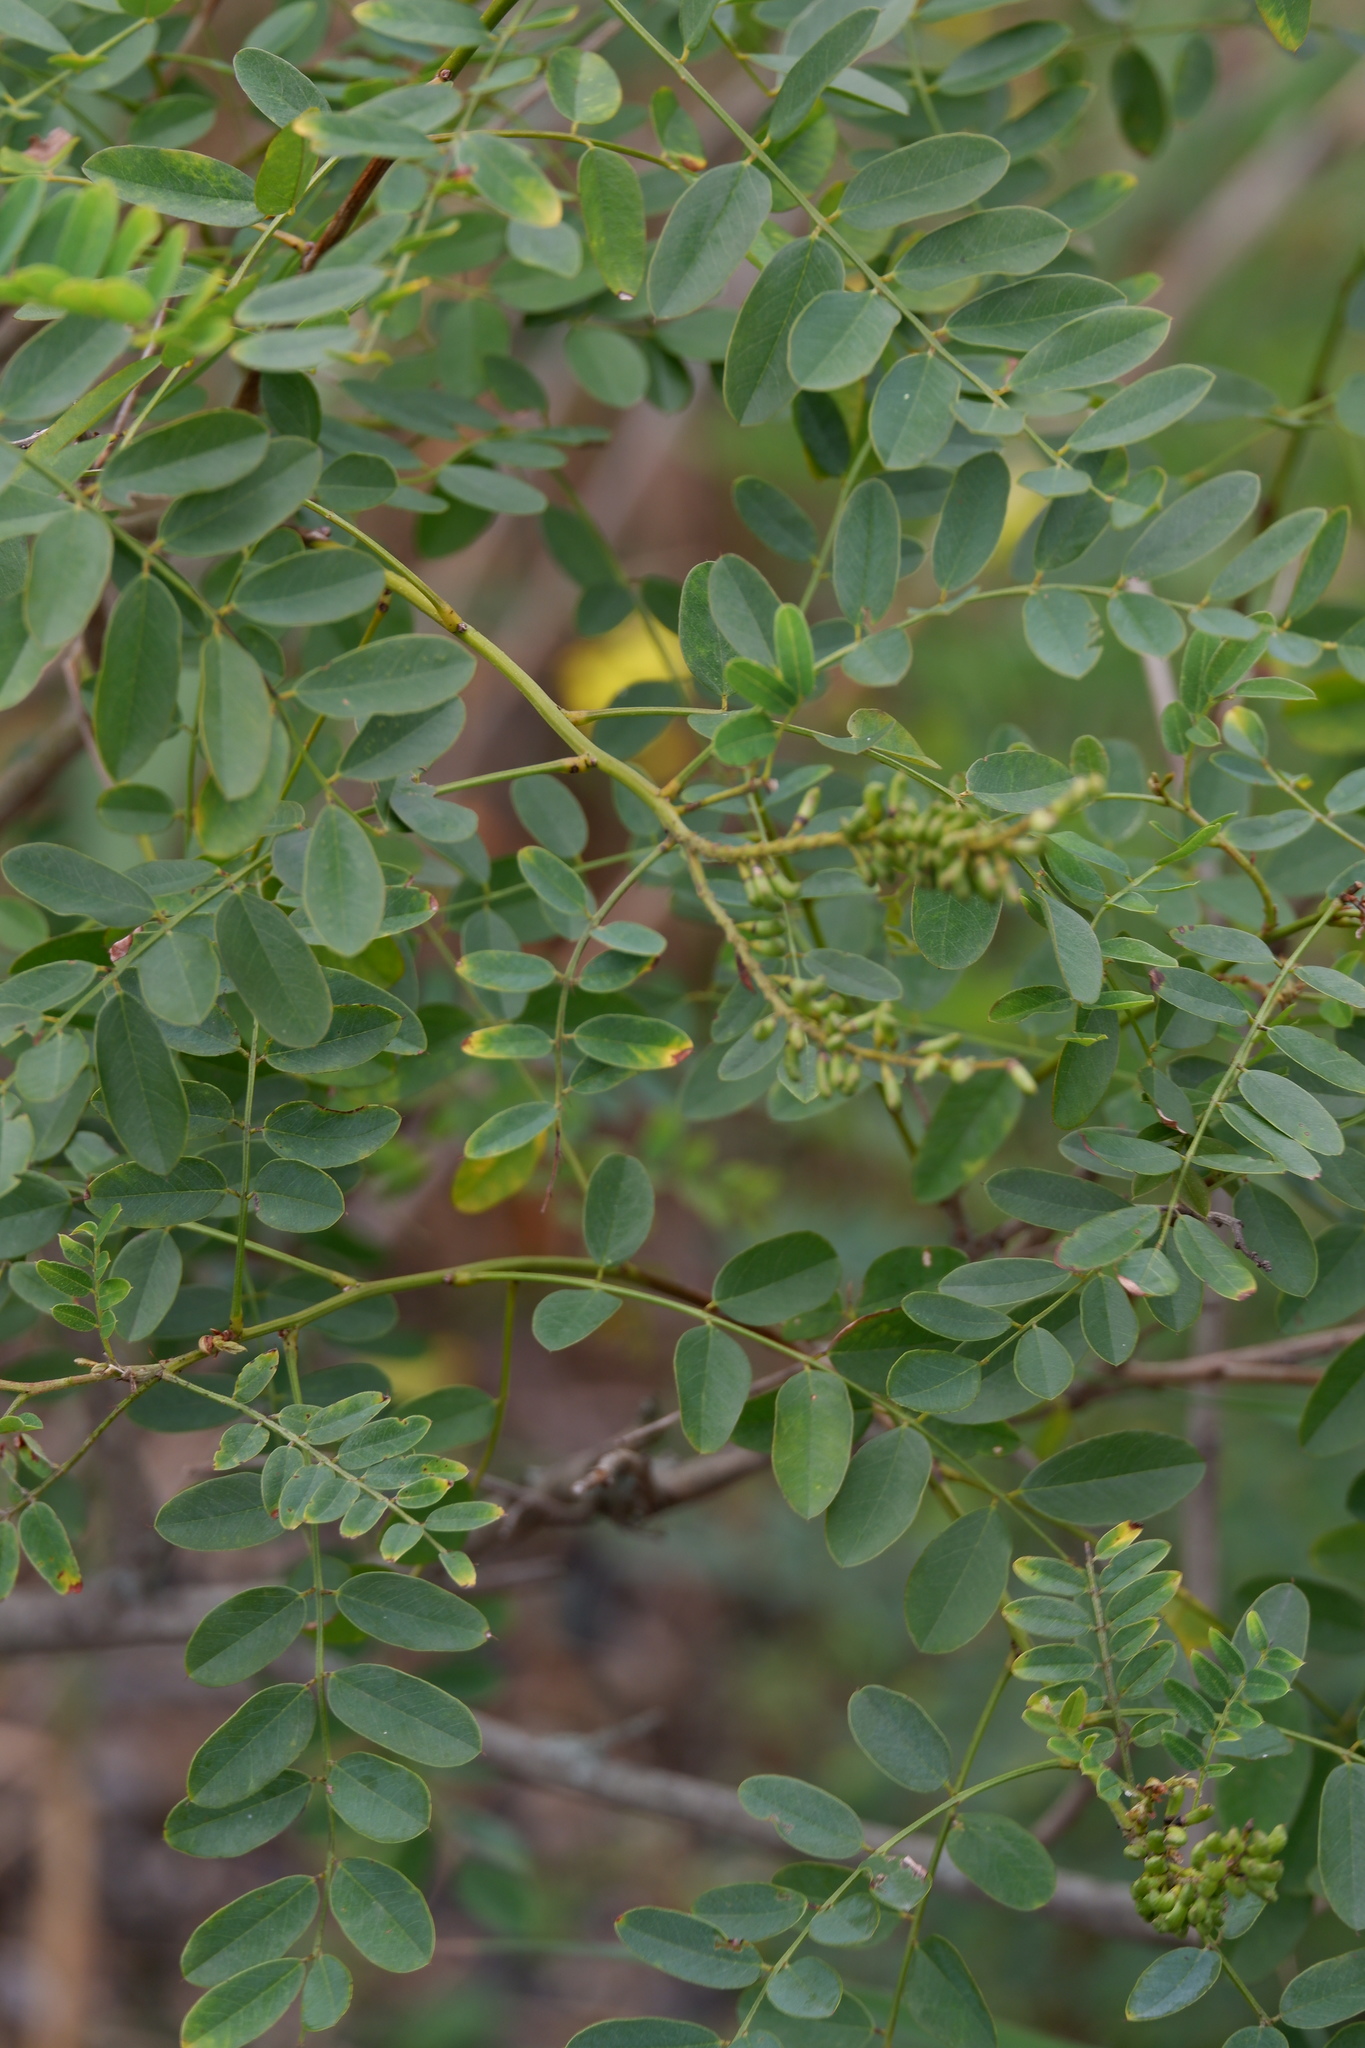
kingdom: Plantae
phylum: Tracheophyta
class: Magnoliopsida
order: Fabales
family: Fabaceae
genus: Amorpha
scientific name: Amorpha fruticosa
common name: False indigo
